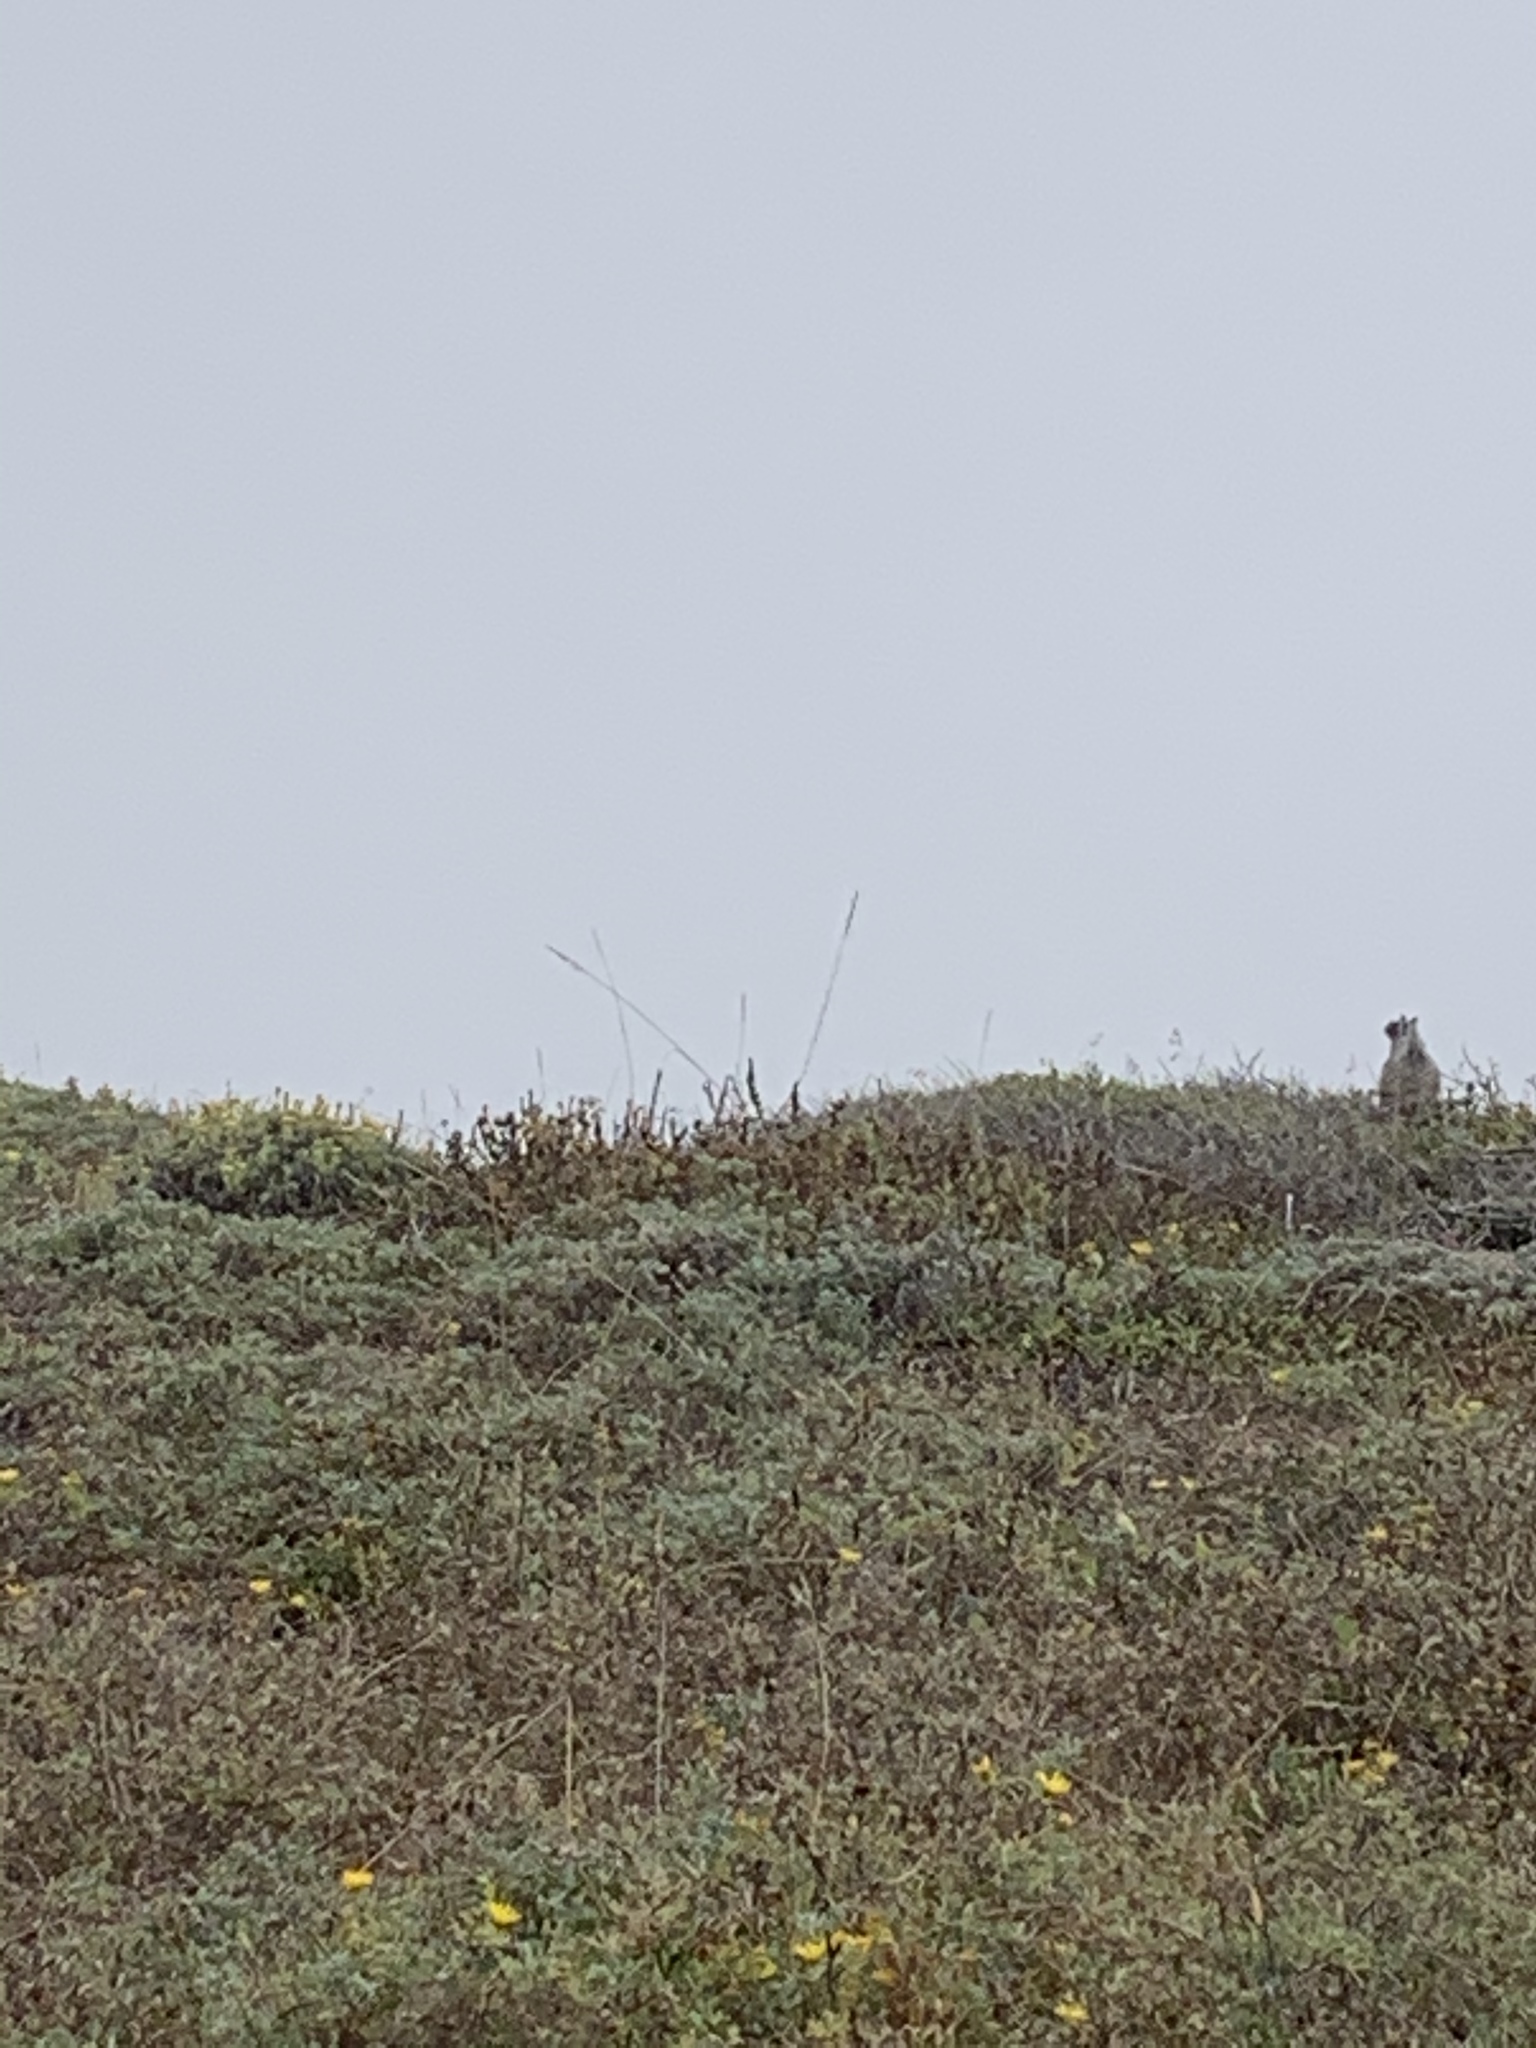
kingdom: Animalia
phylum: Chordata
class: Mammalia
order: Rodentia
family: Sciuridae
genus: Otospermophilus
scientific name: Otospermophilus beecheyi
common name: California ground squirrel
